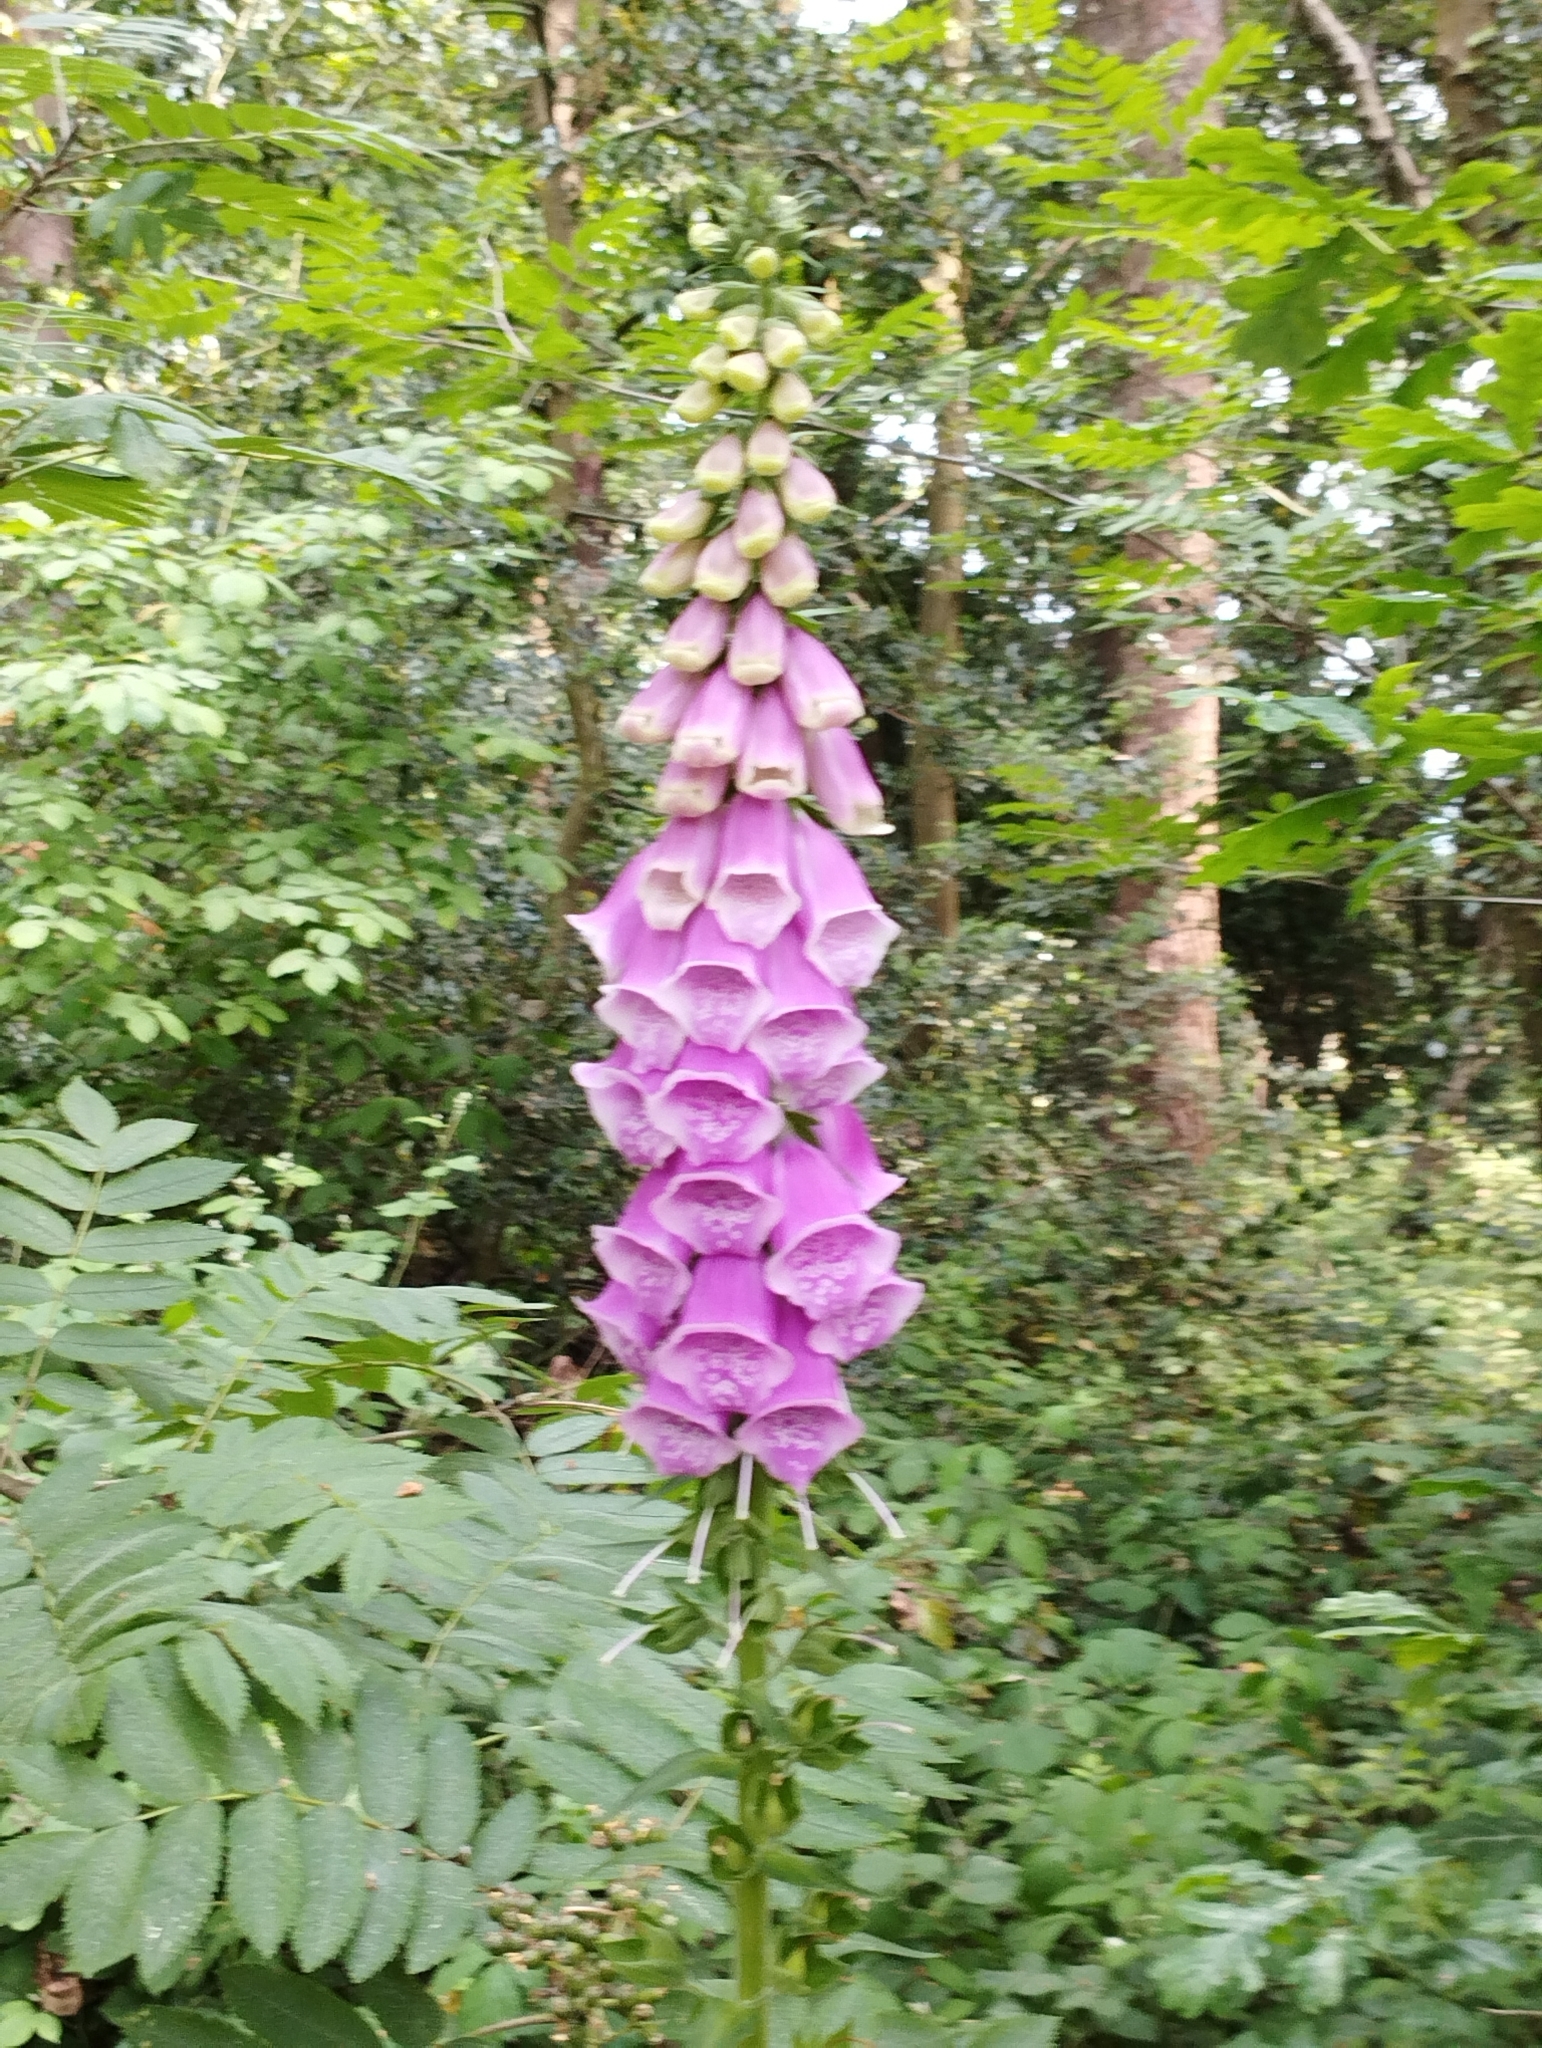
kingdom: Plantae
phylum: Tracheophyta
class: Magnoliopsida
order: Lamiales
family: Plantaginaceae
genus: Digitalis
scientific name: Digitalis purpurea
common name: Foxglove
